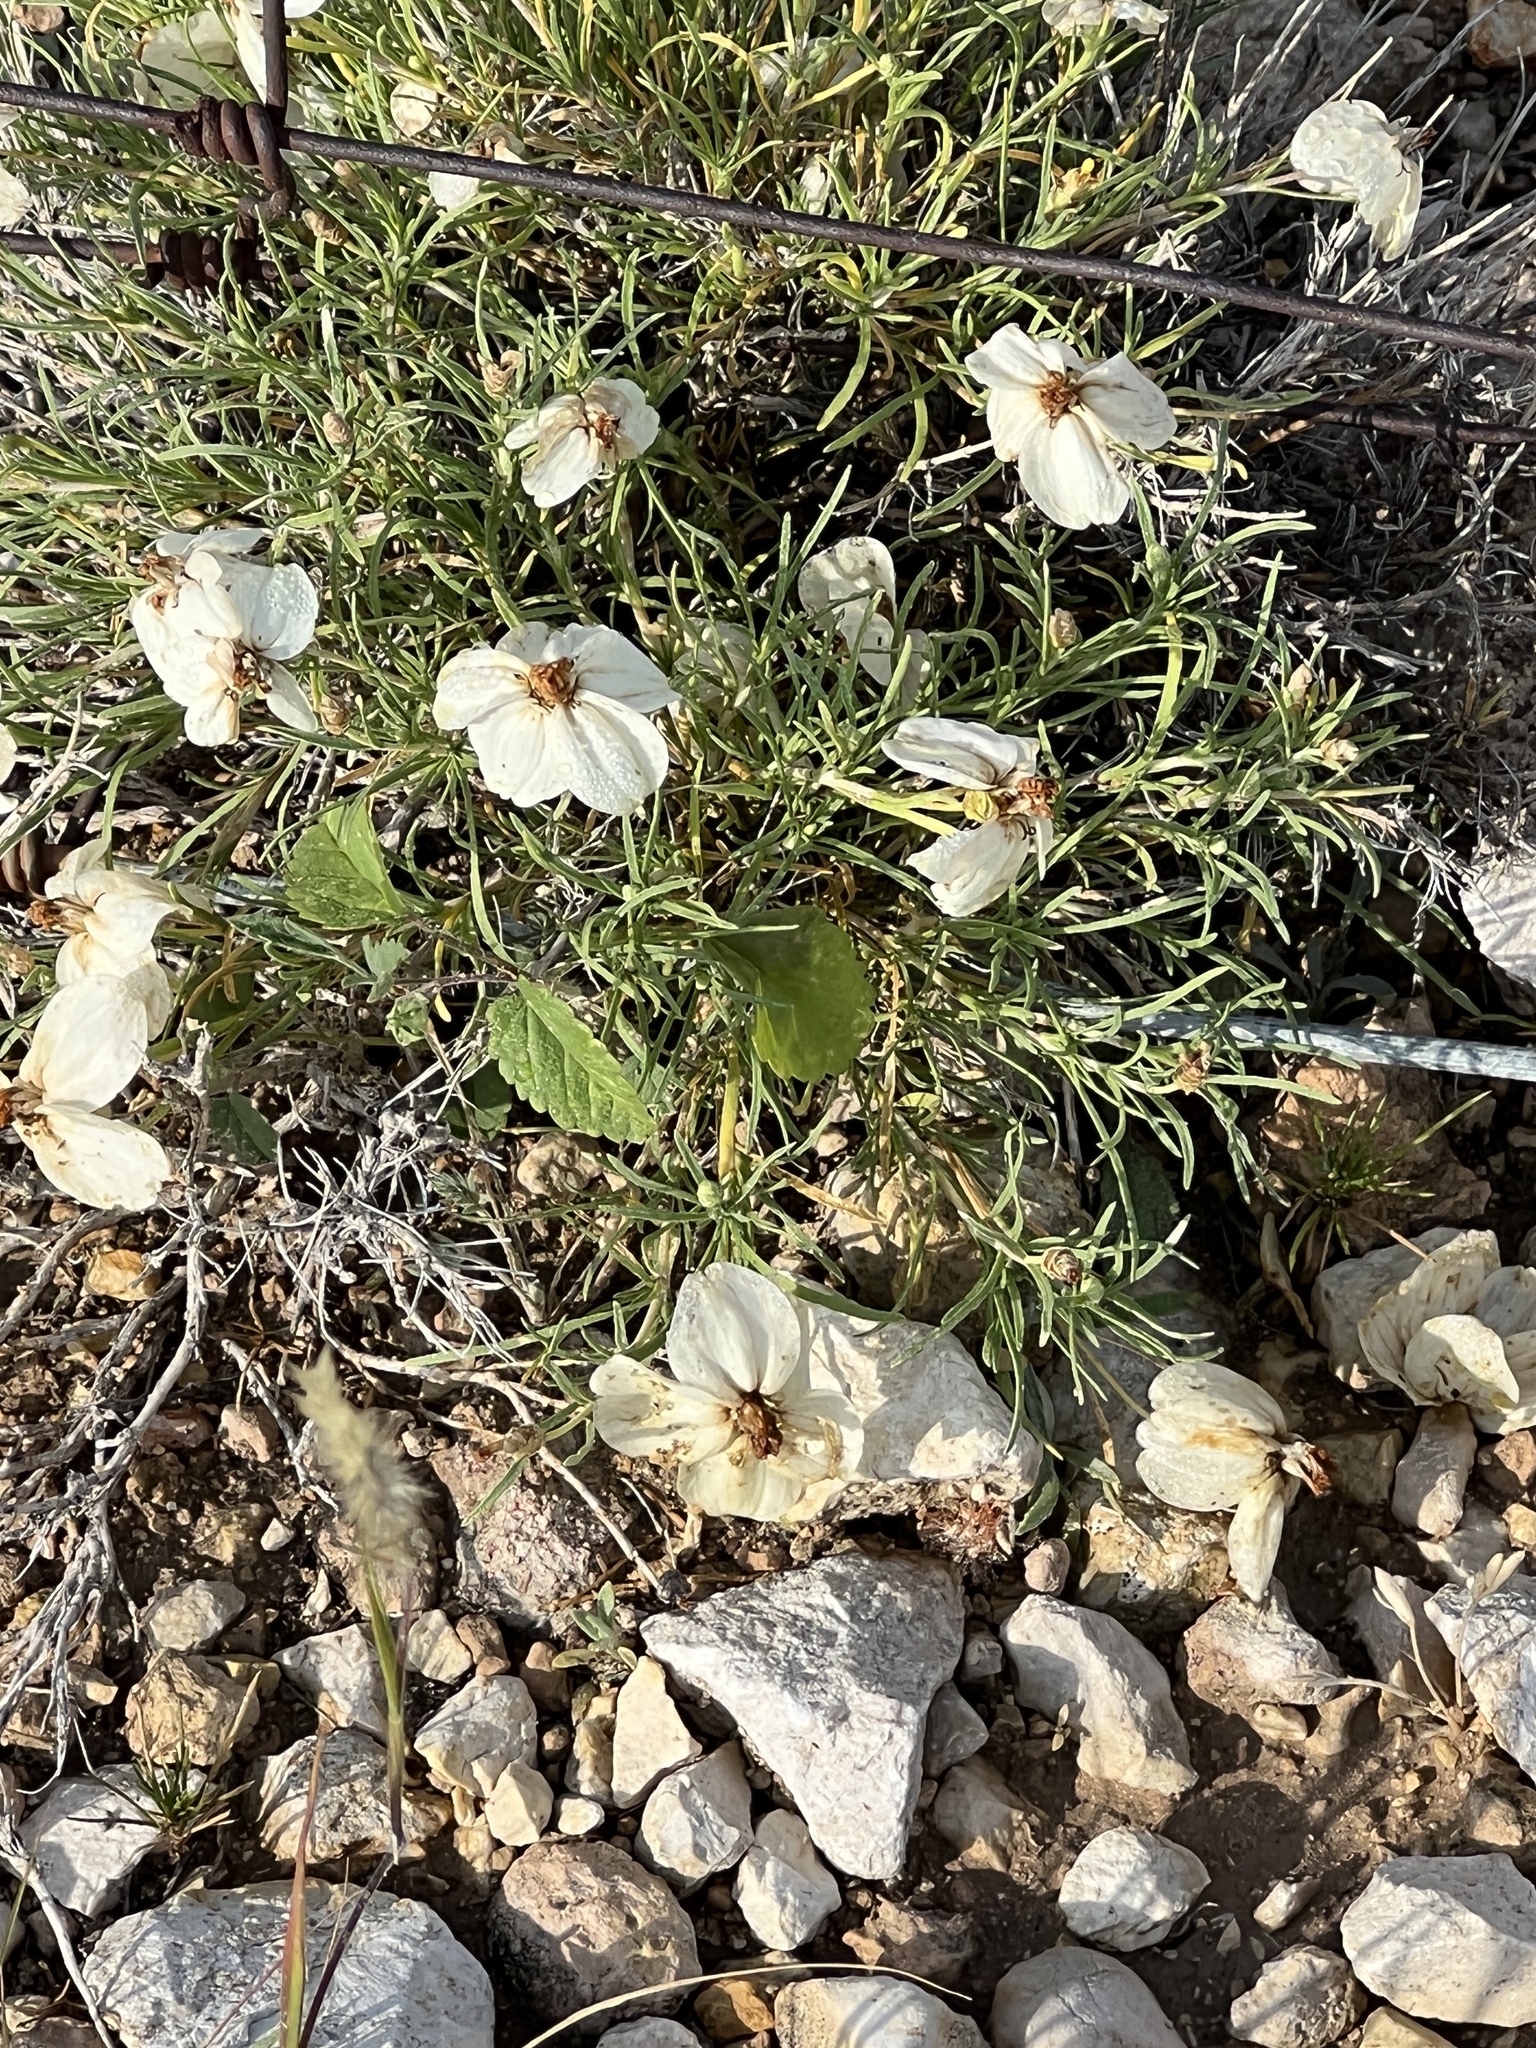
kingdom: Plantae
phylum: Tracheophyta
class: Magnoliopsida
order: Asterales
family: Asteraceae
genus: Zinnia
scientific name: Zinnia acerosa
